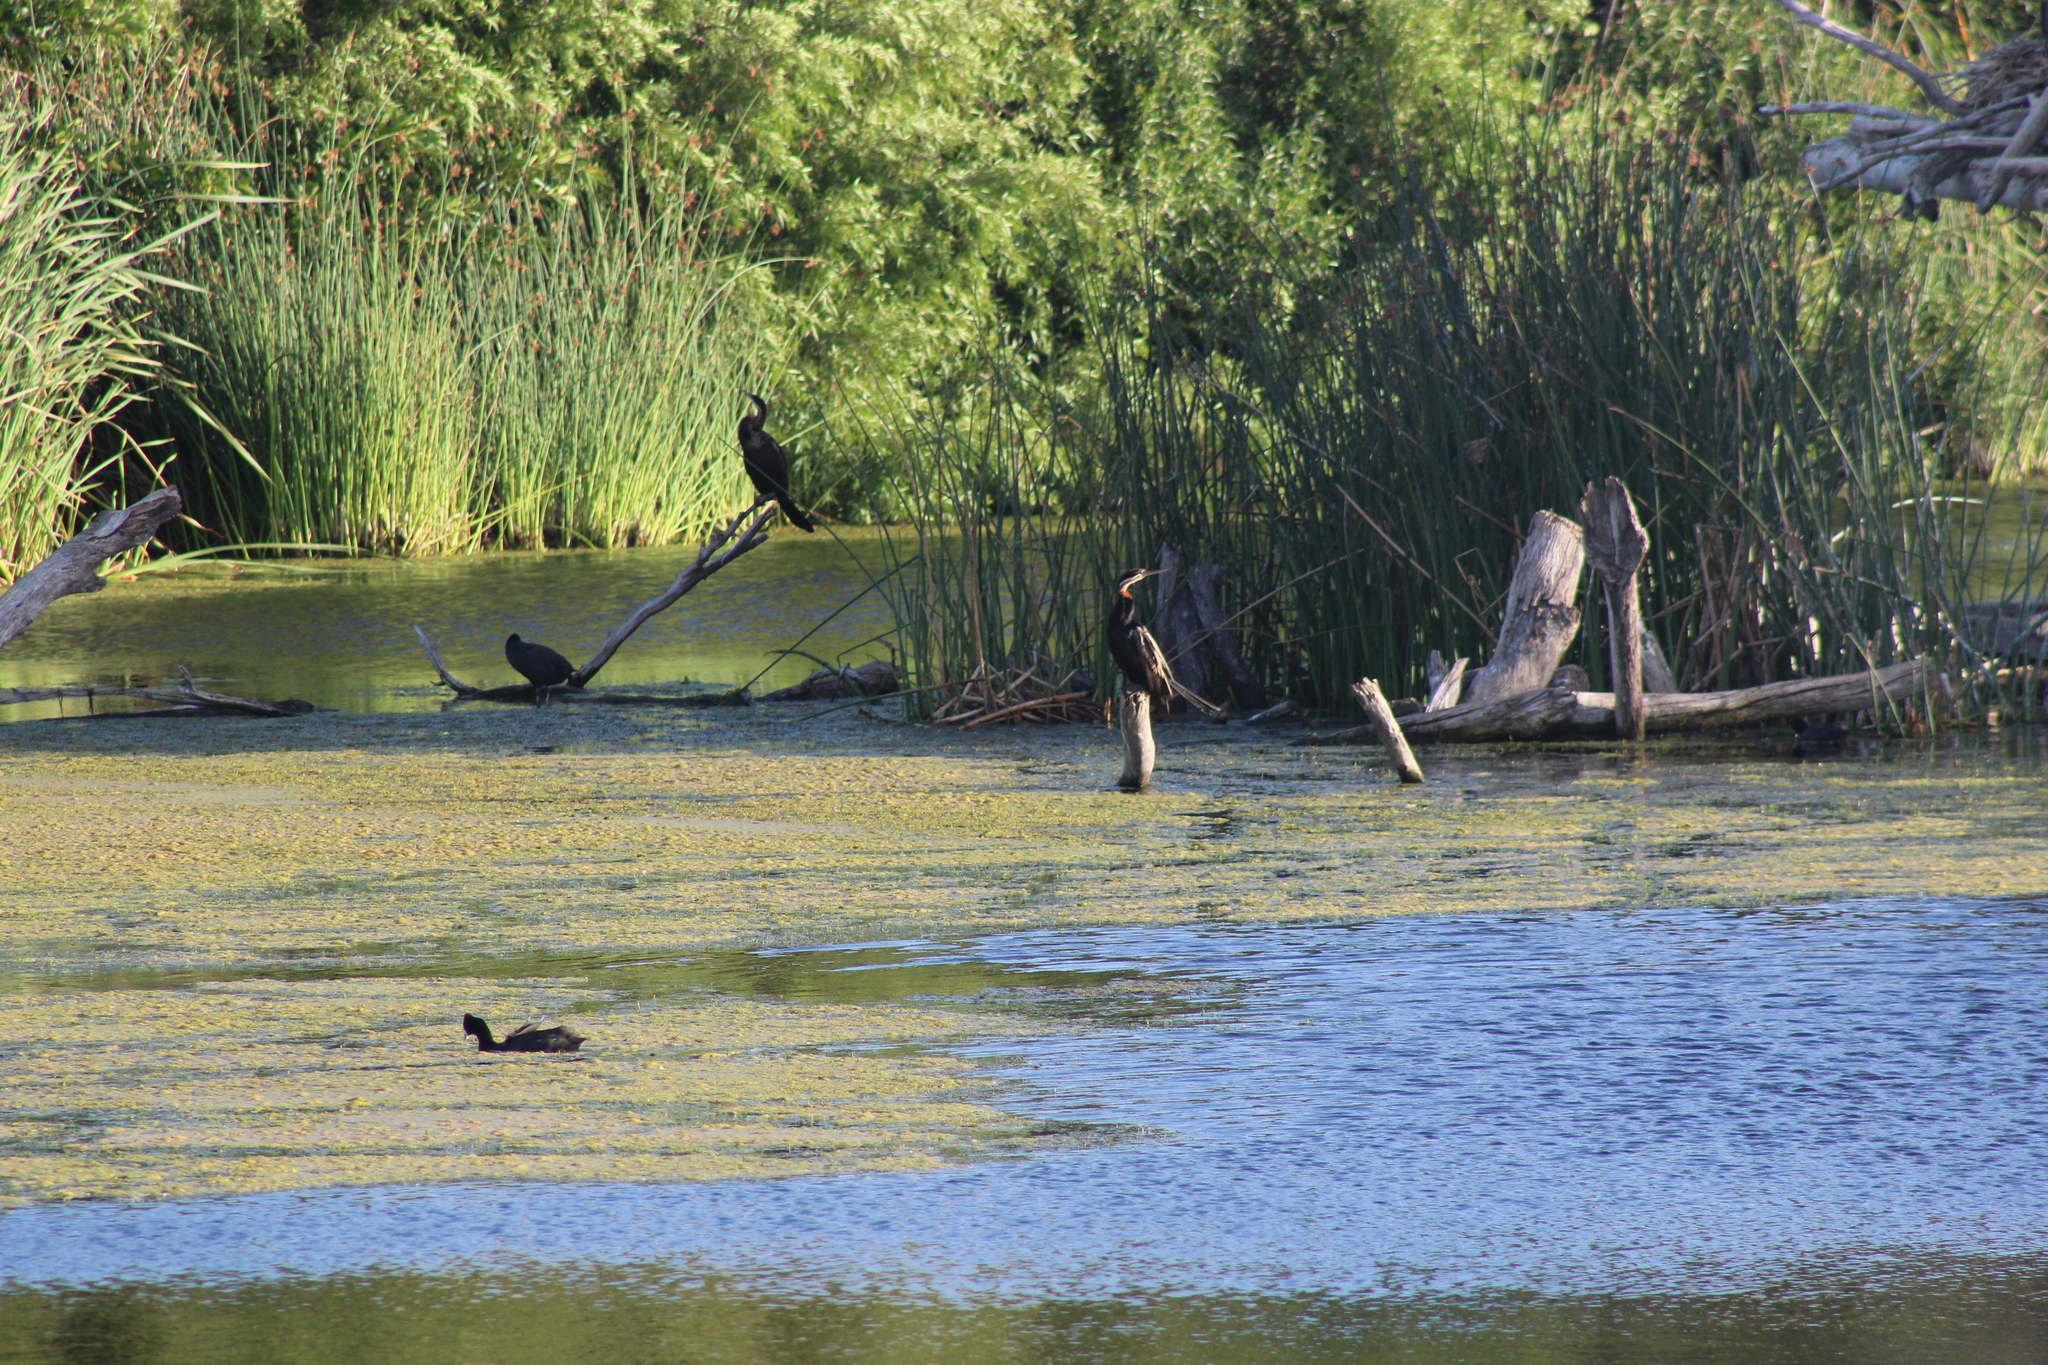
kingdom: Animalia
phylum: Chordata
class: Aves
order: Suliformes
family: Anhingidae
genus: Anhinga
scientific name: Anhinga rufa
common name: African darter
